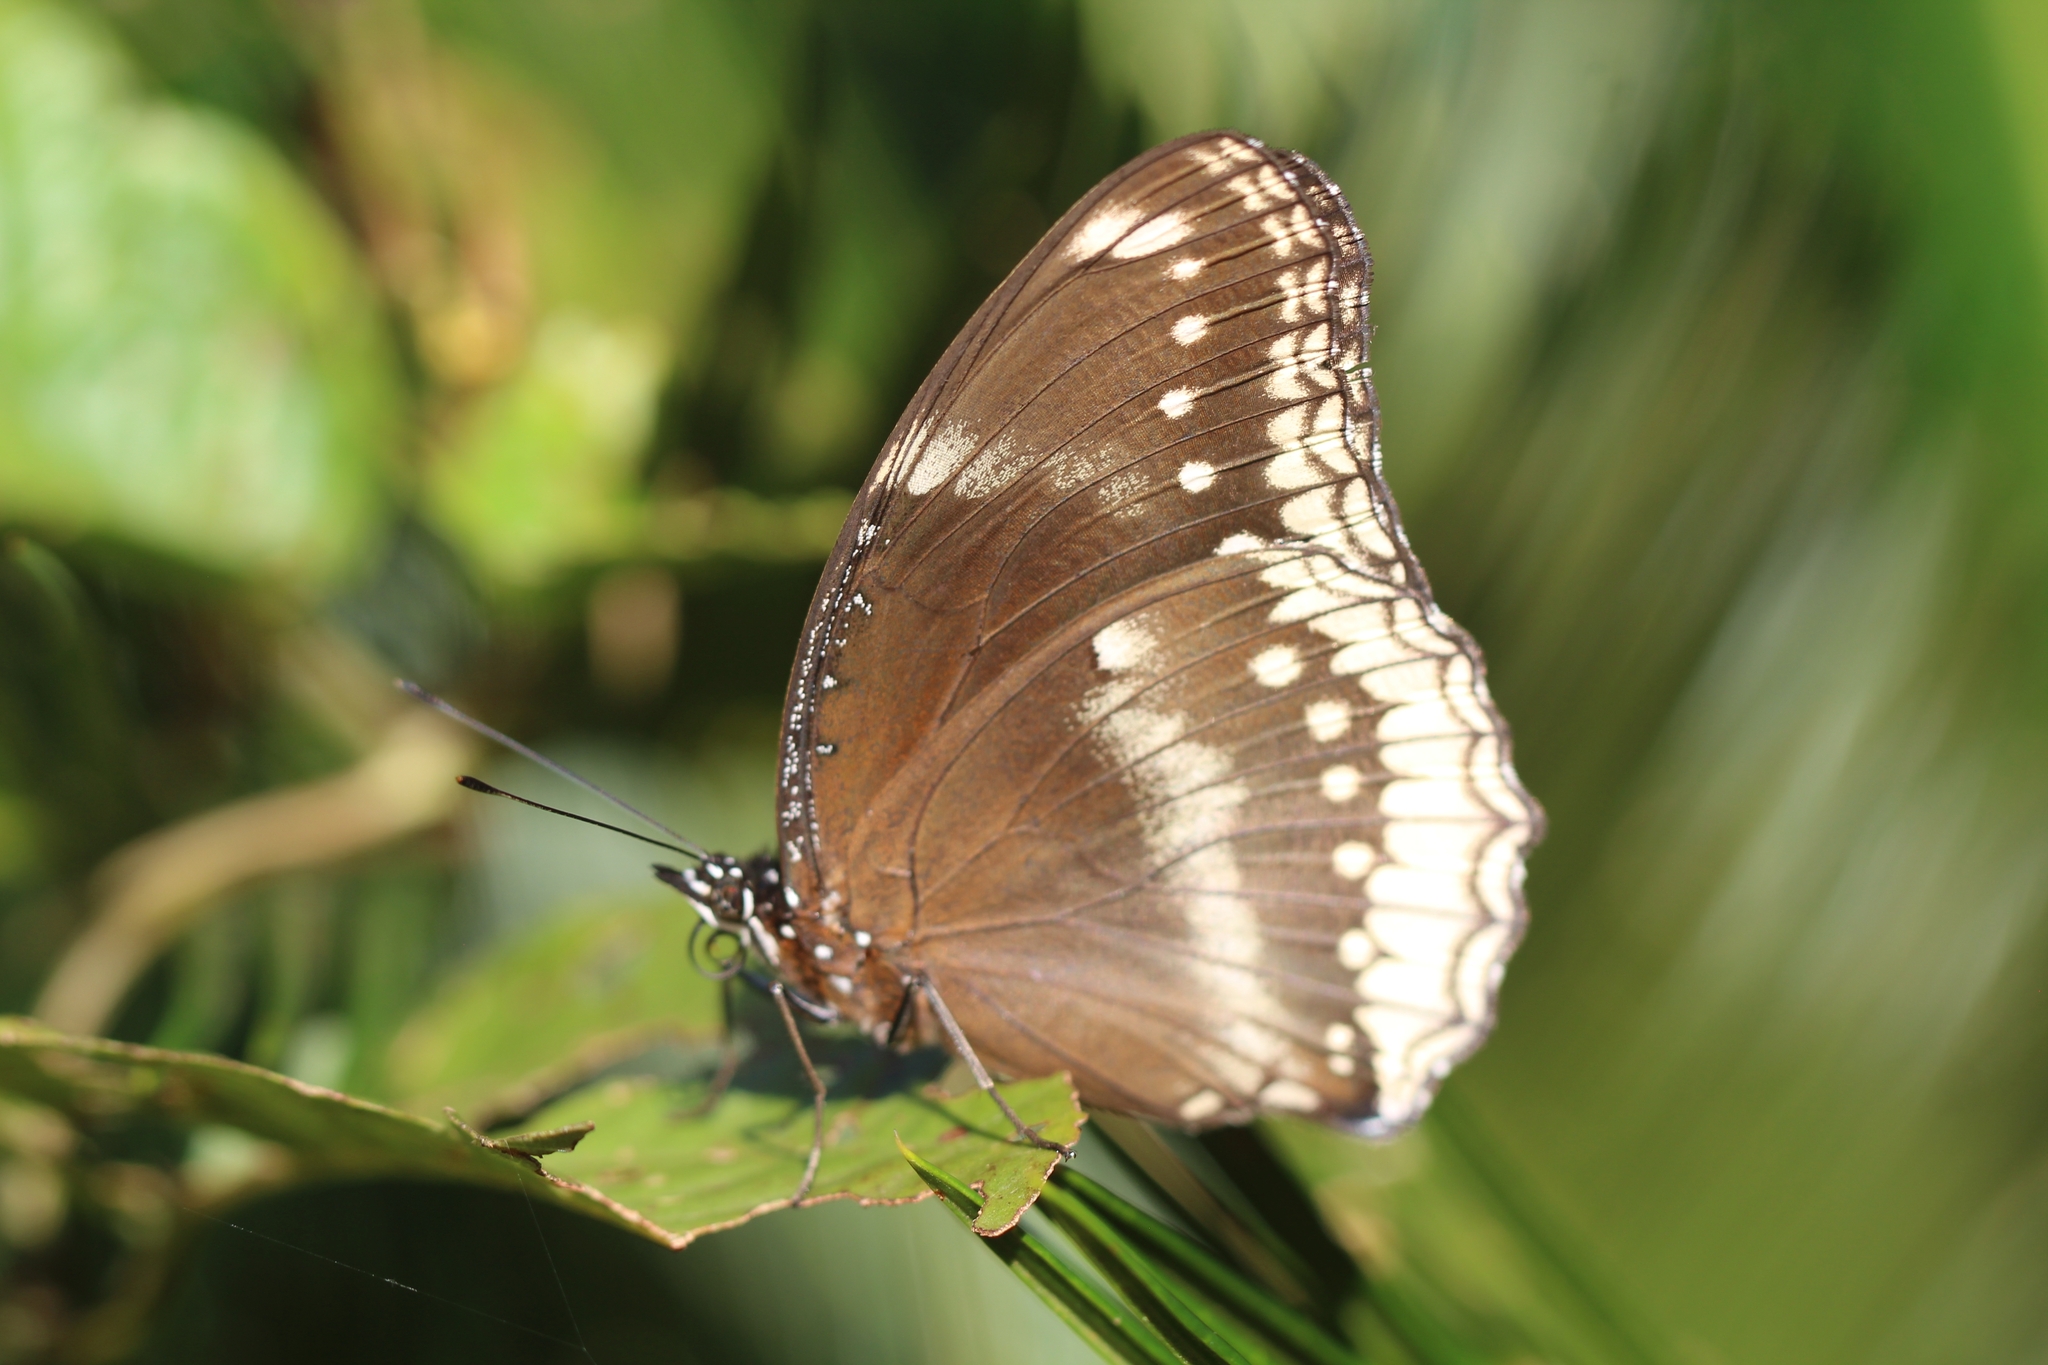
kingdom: Animalia
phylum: Arthropoda
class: Insecta
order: Lepidoptera
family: Nymphalidae
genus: Hypolimnas
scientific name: Hypolimnas bolina
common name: Great eggfly
